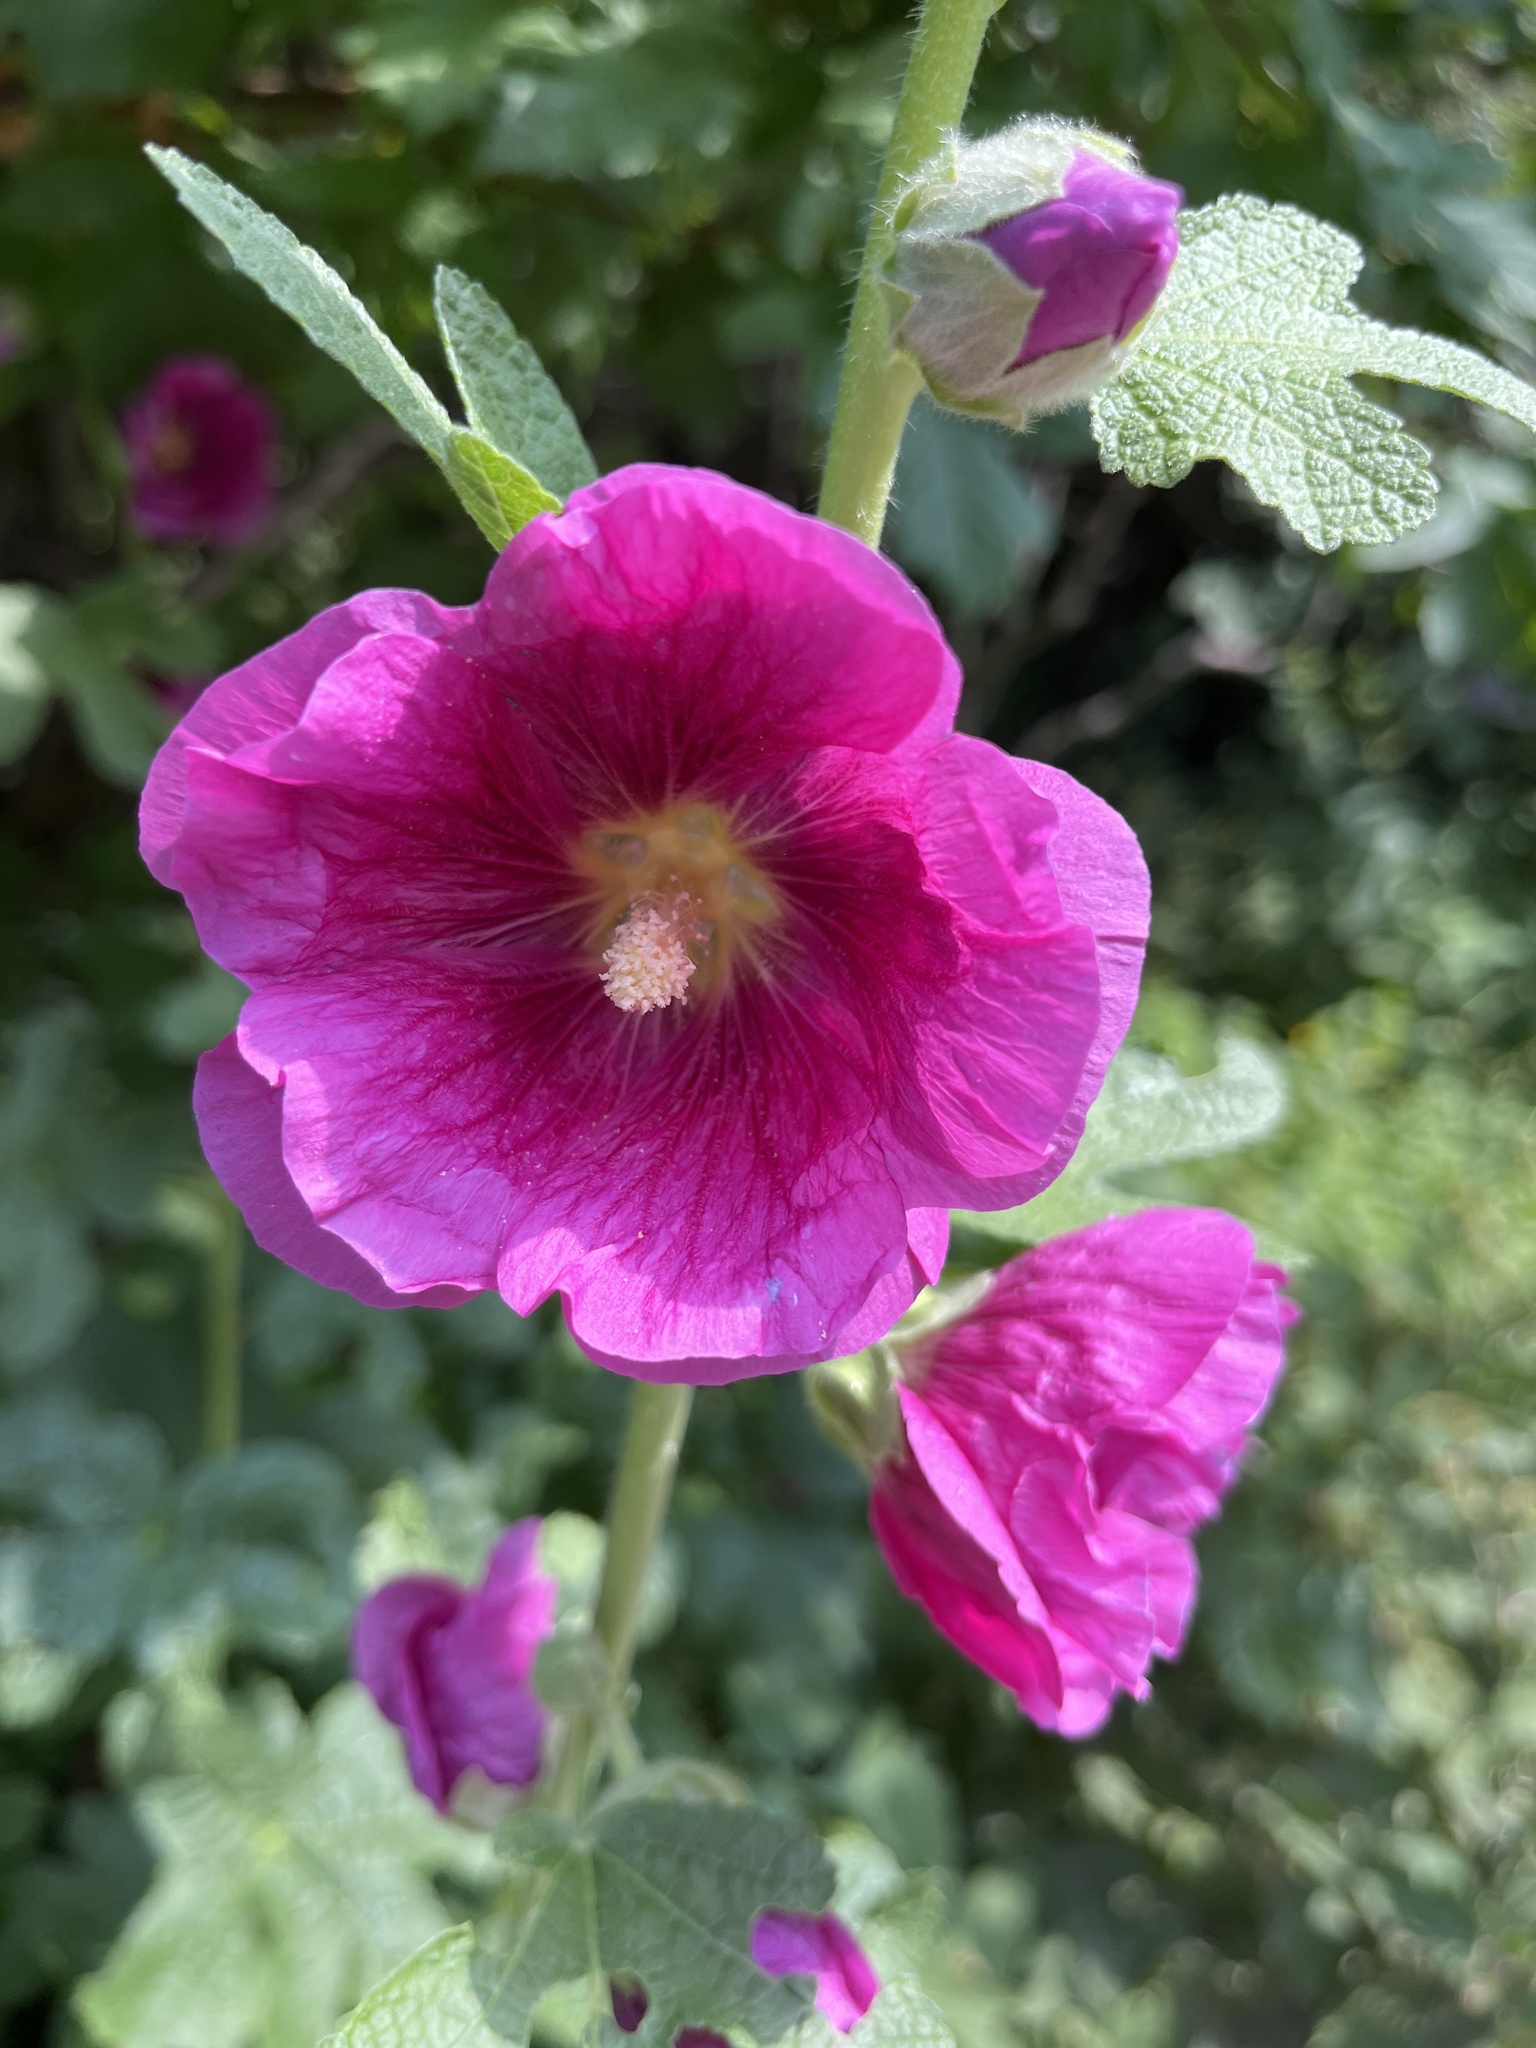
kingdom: Plantae
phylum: Tracheophyta
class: Magnoliopsida
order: Malvales
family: Malvaceae
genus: Alcea
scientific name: Alcea rosea
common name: Hollyhock
